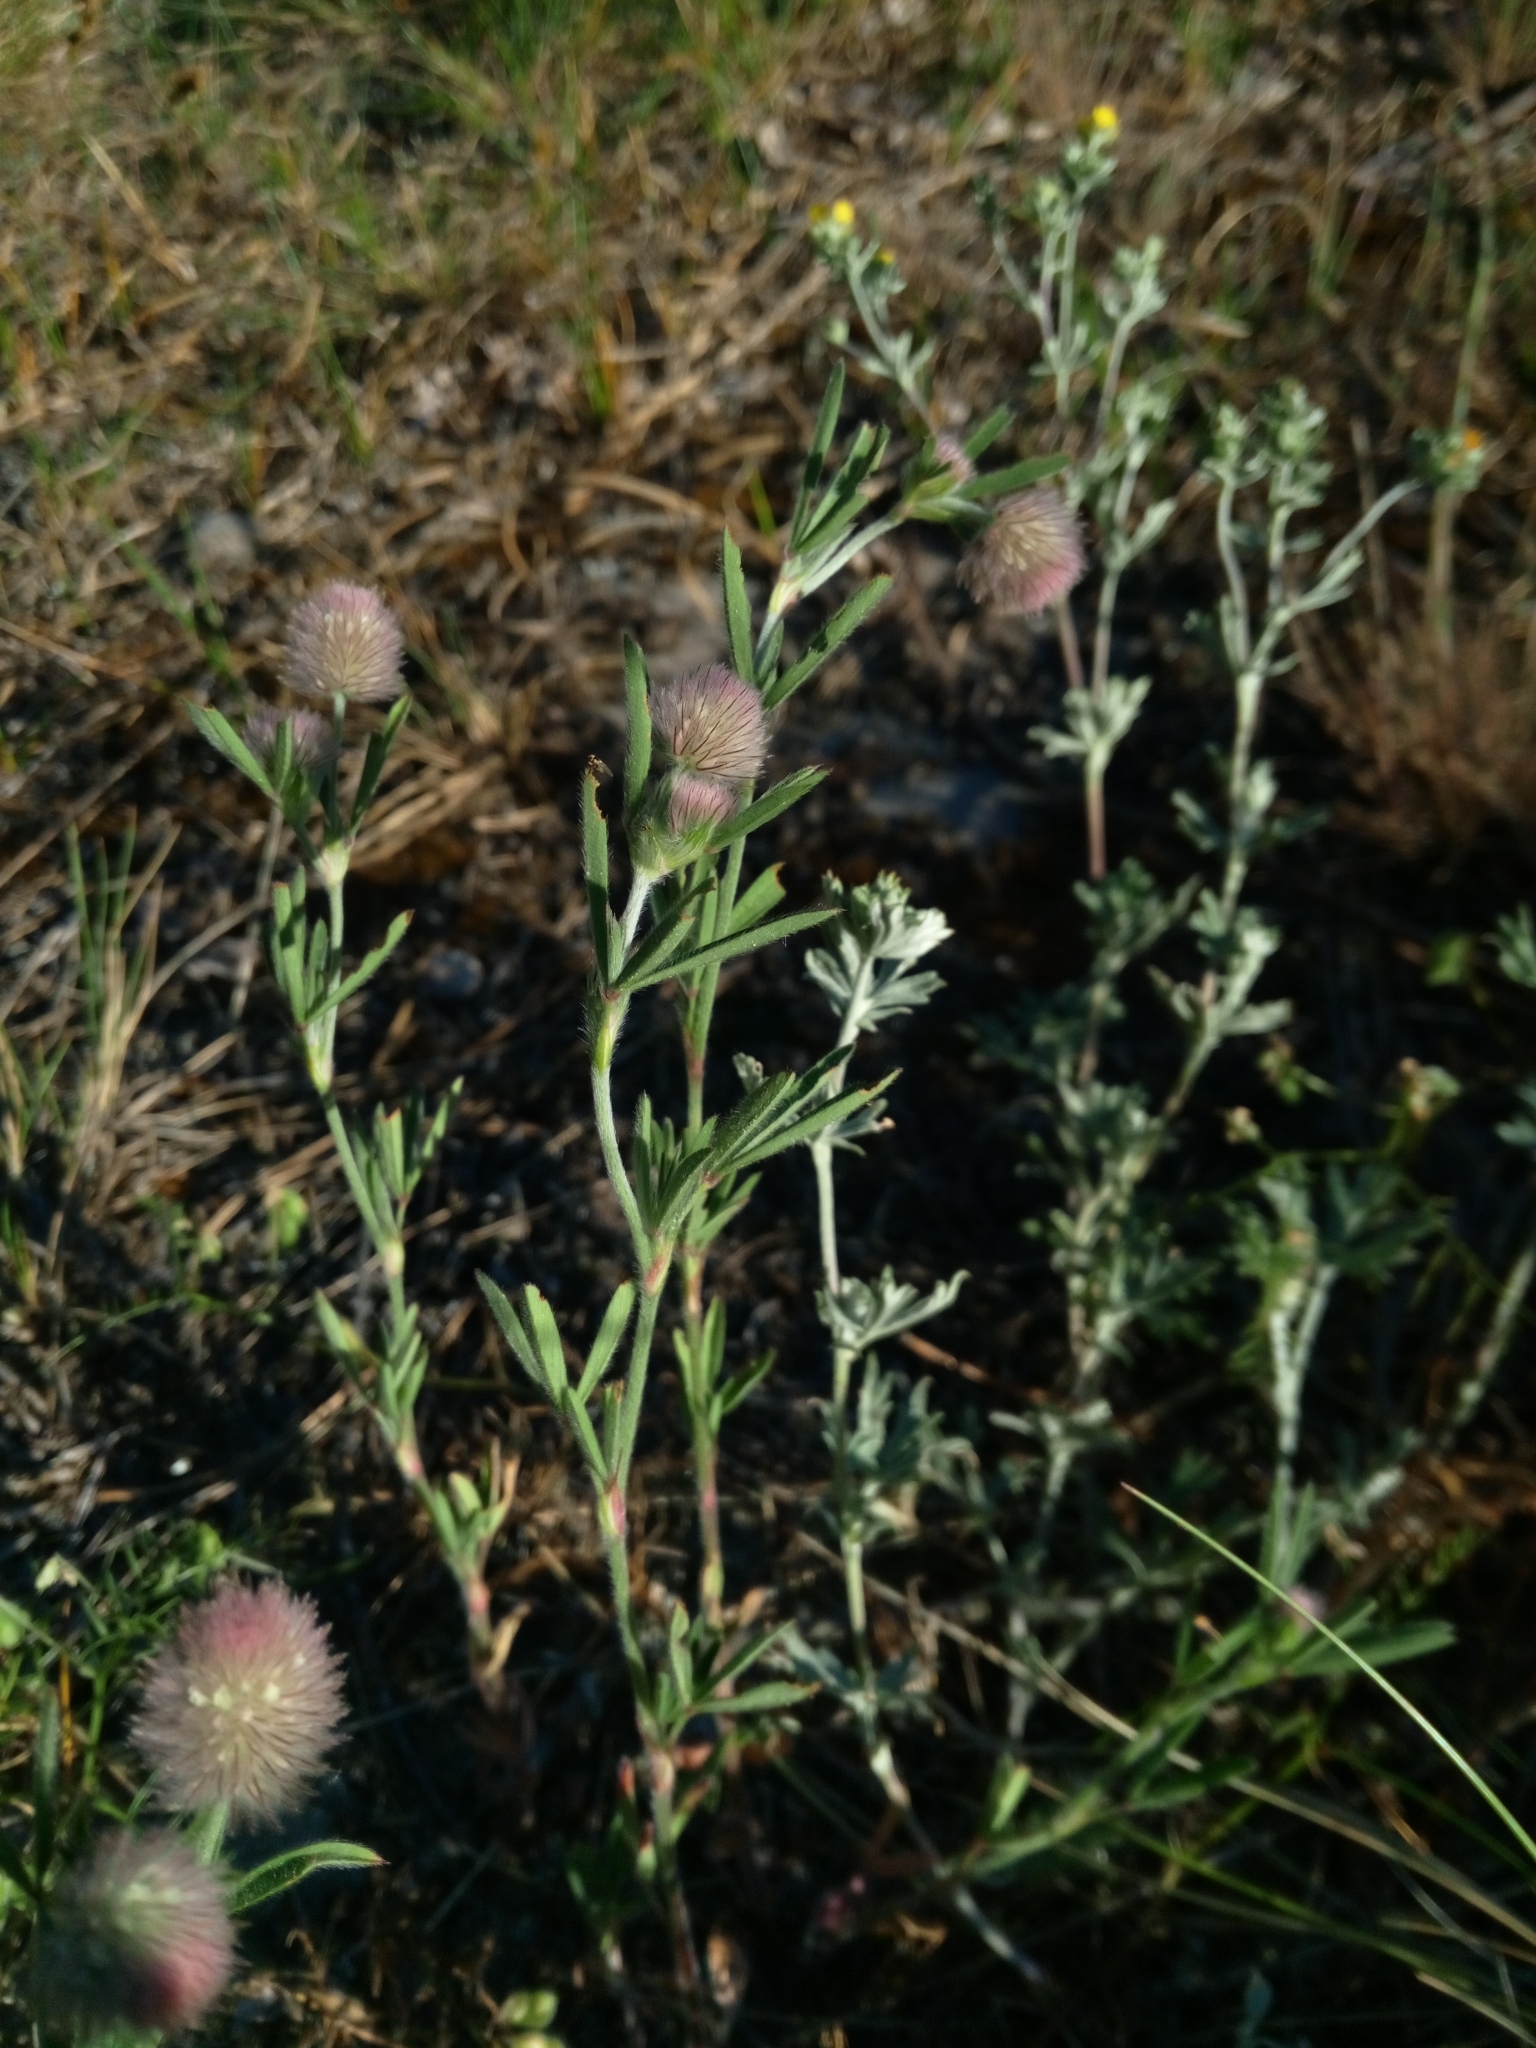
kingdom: Plantae
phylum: Tracheophyta
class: Magnoliopsida
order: Fabales
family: Fabaceae
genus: Trifolium
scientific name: Trifolium arvense
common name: Hare's-foot clover
